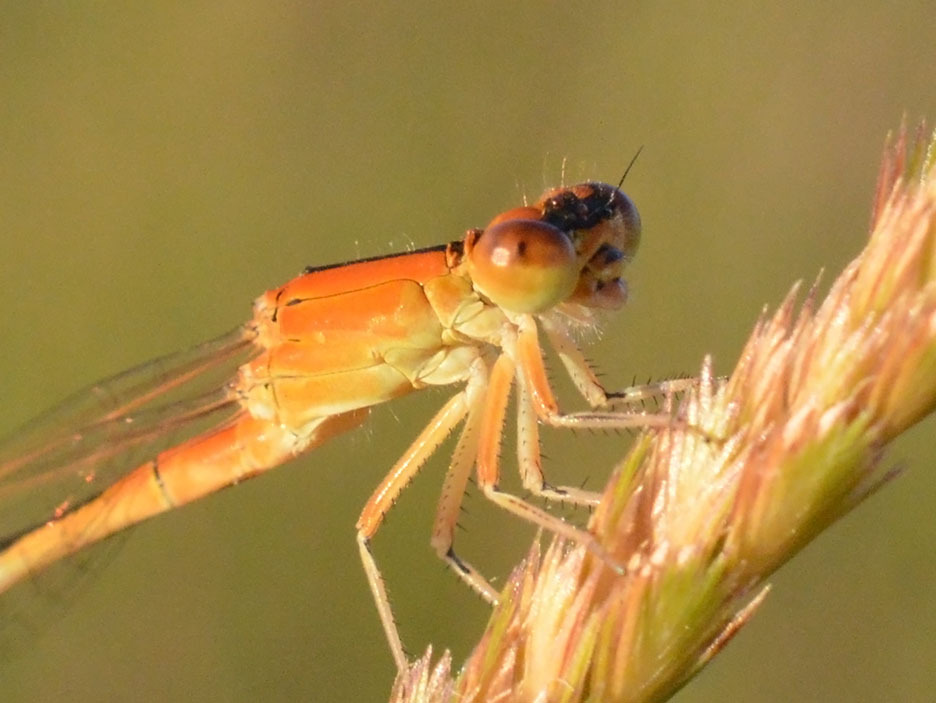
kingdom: Animalia
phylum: Arthropoda
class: Insecta
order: Odonata
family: Coenagrionidae
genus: Ischnura
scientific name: Ischnura pumilio
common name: Scarce blue-tailed damselfly
